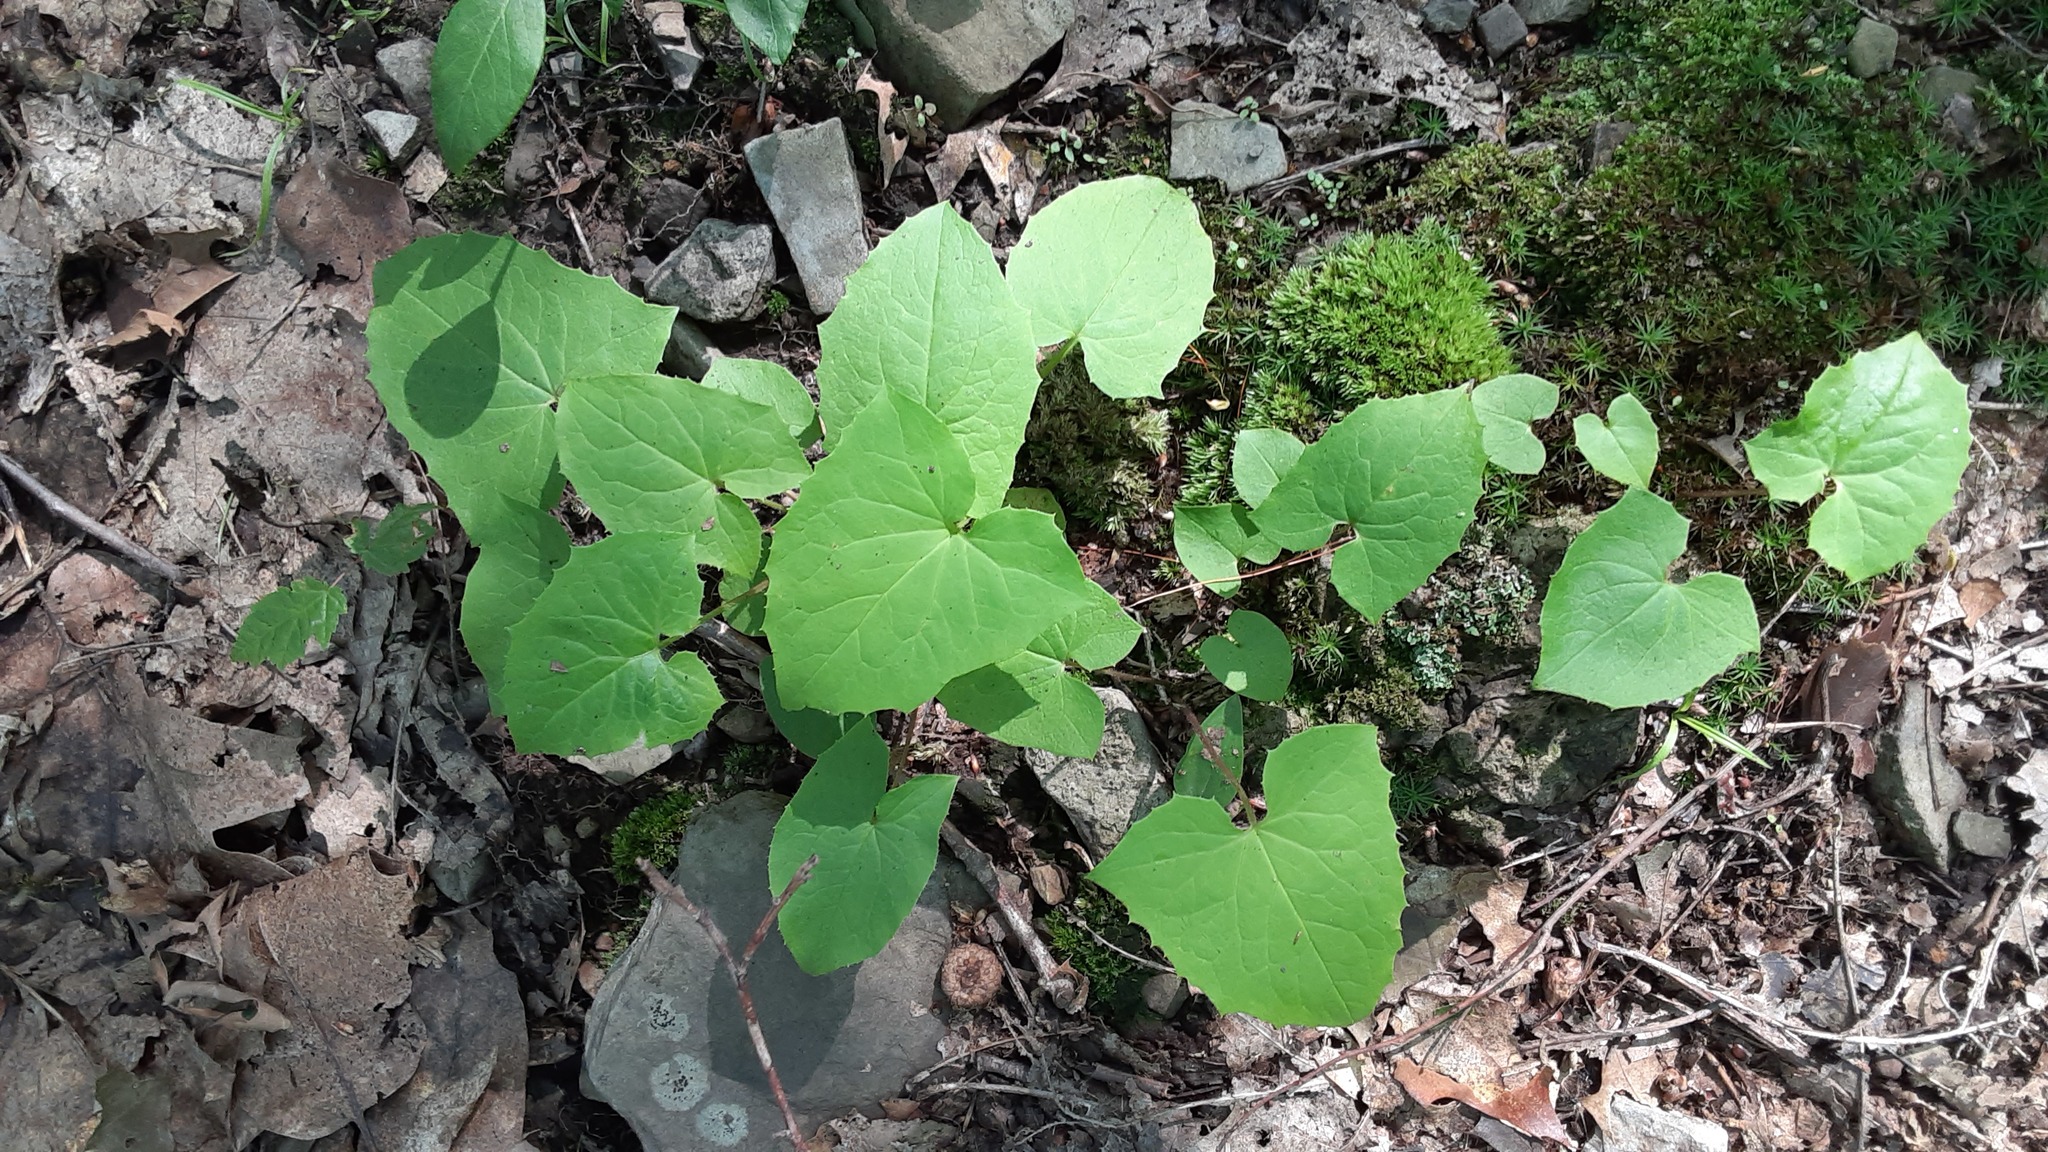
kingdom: Plantae
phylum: Tracheophyta
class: Magnoliopsida
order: Asterales
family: Asteraceae
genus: Nabalus
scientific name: Nabalus
